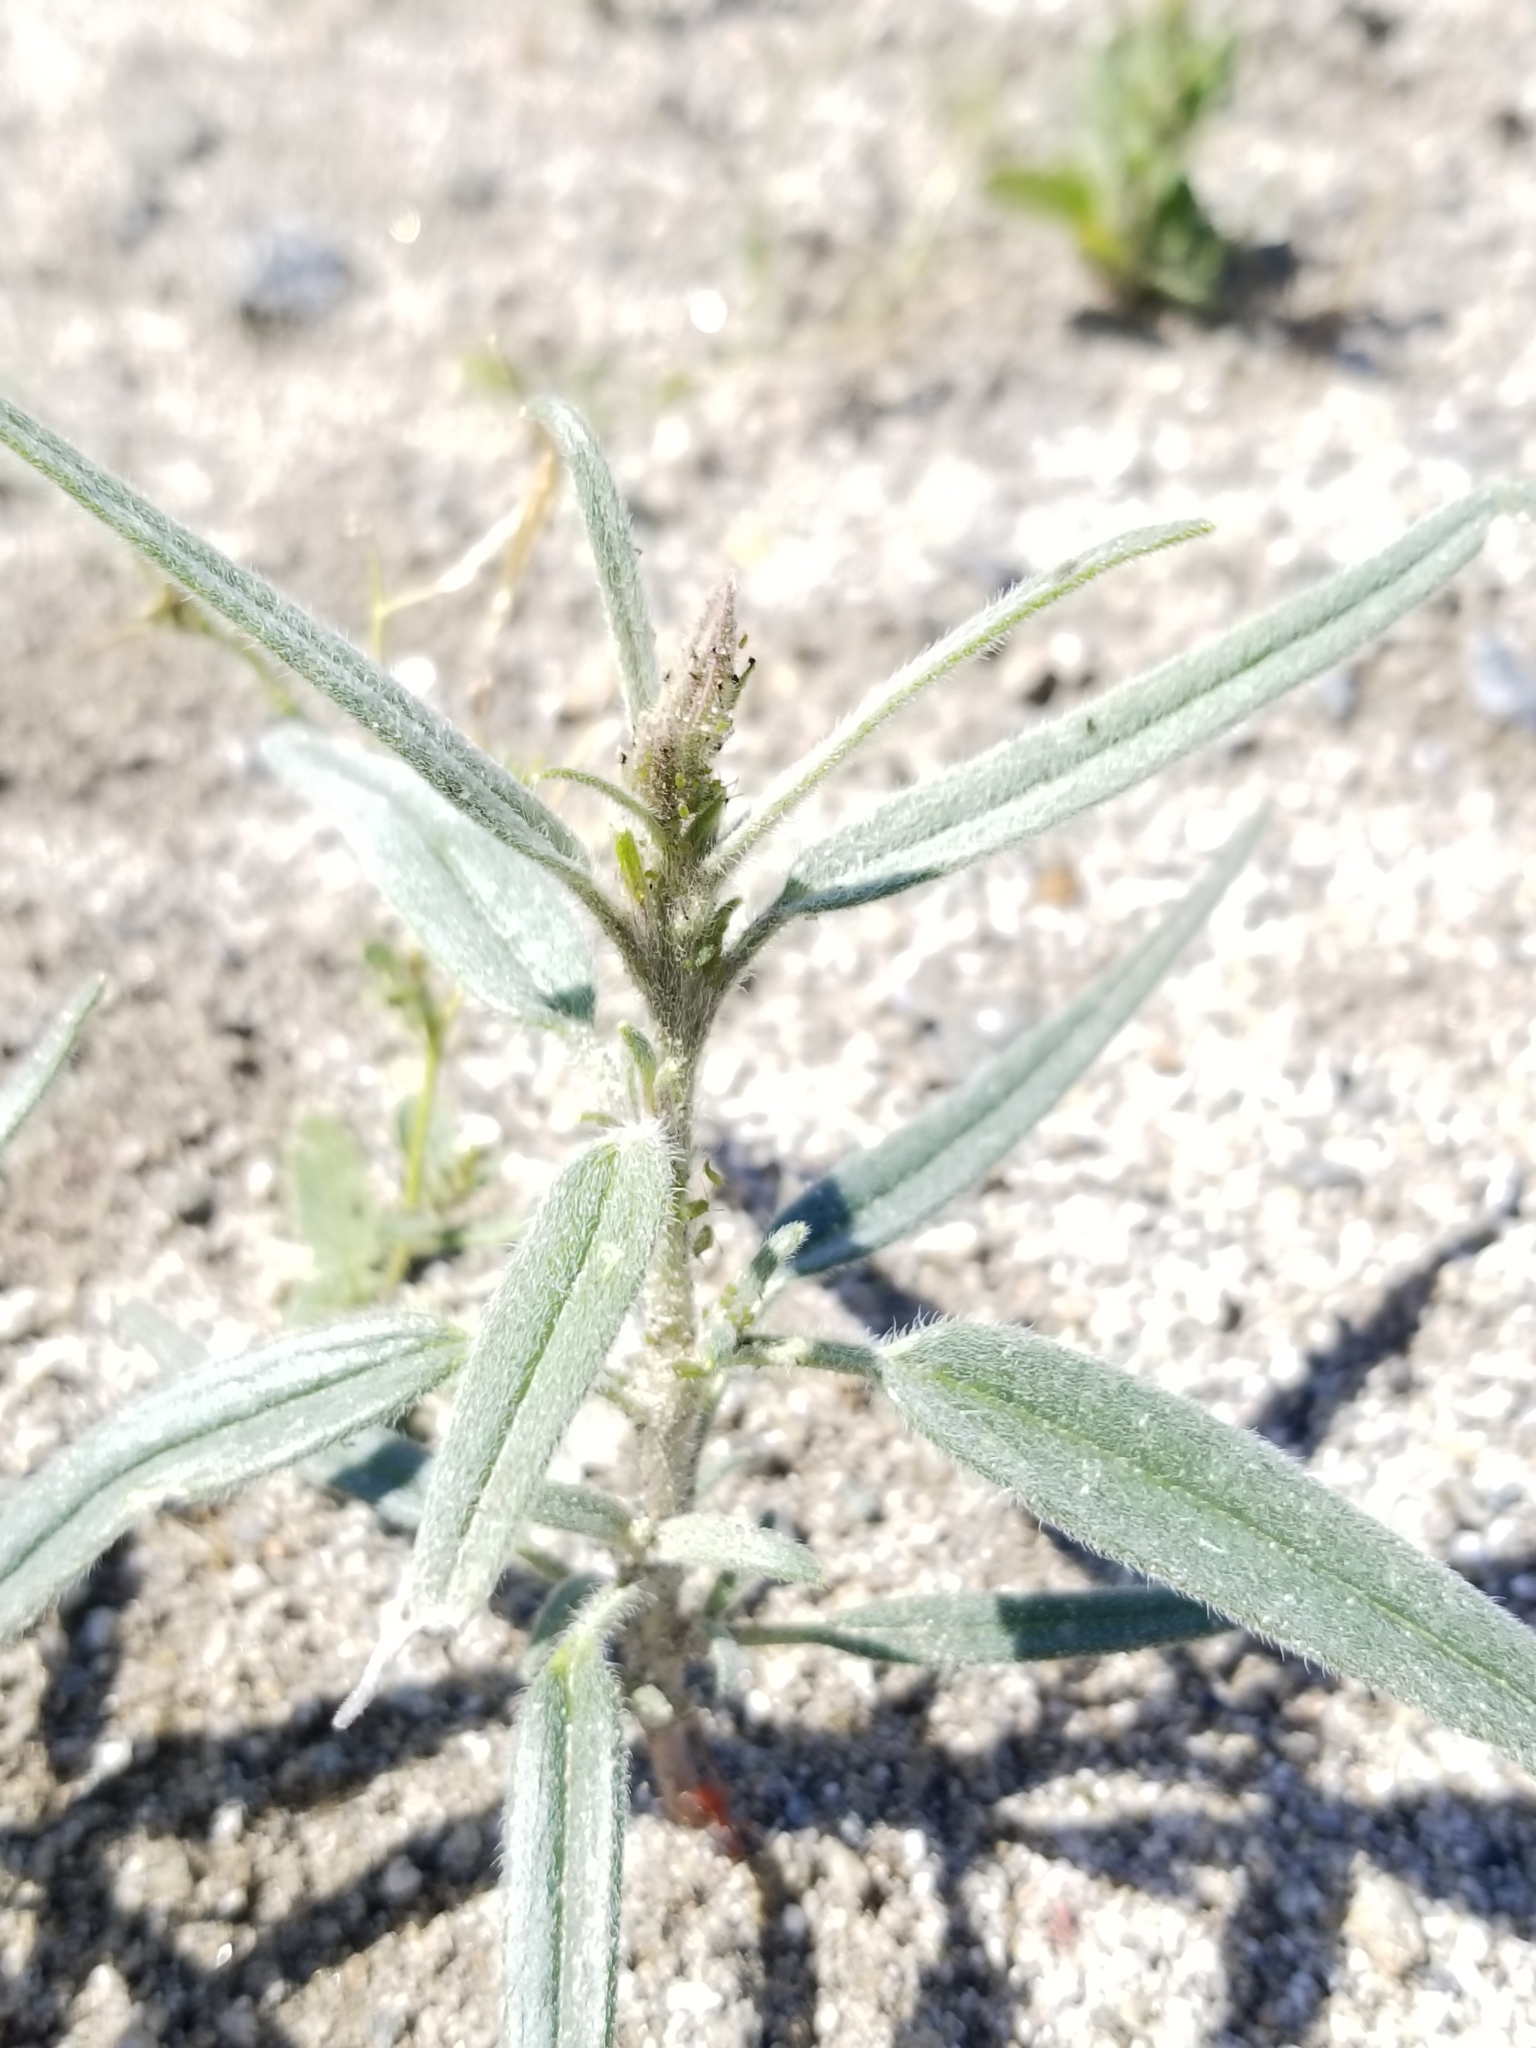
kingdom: Plantae
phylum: Tracheophyta
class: Magnoliopsida
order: Asterales
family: Asteraceae
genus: Palafoxia
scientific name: Palafoxia arida
